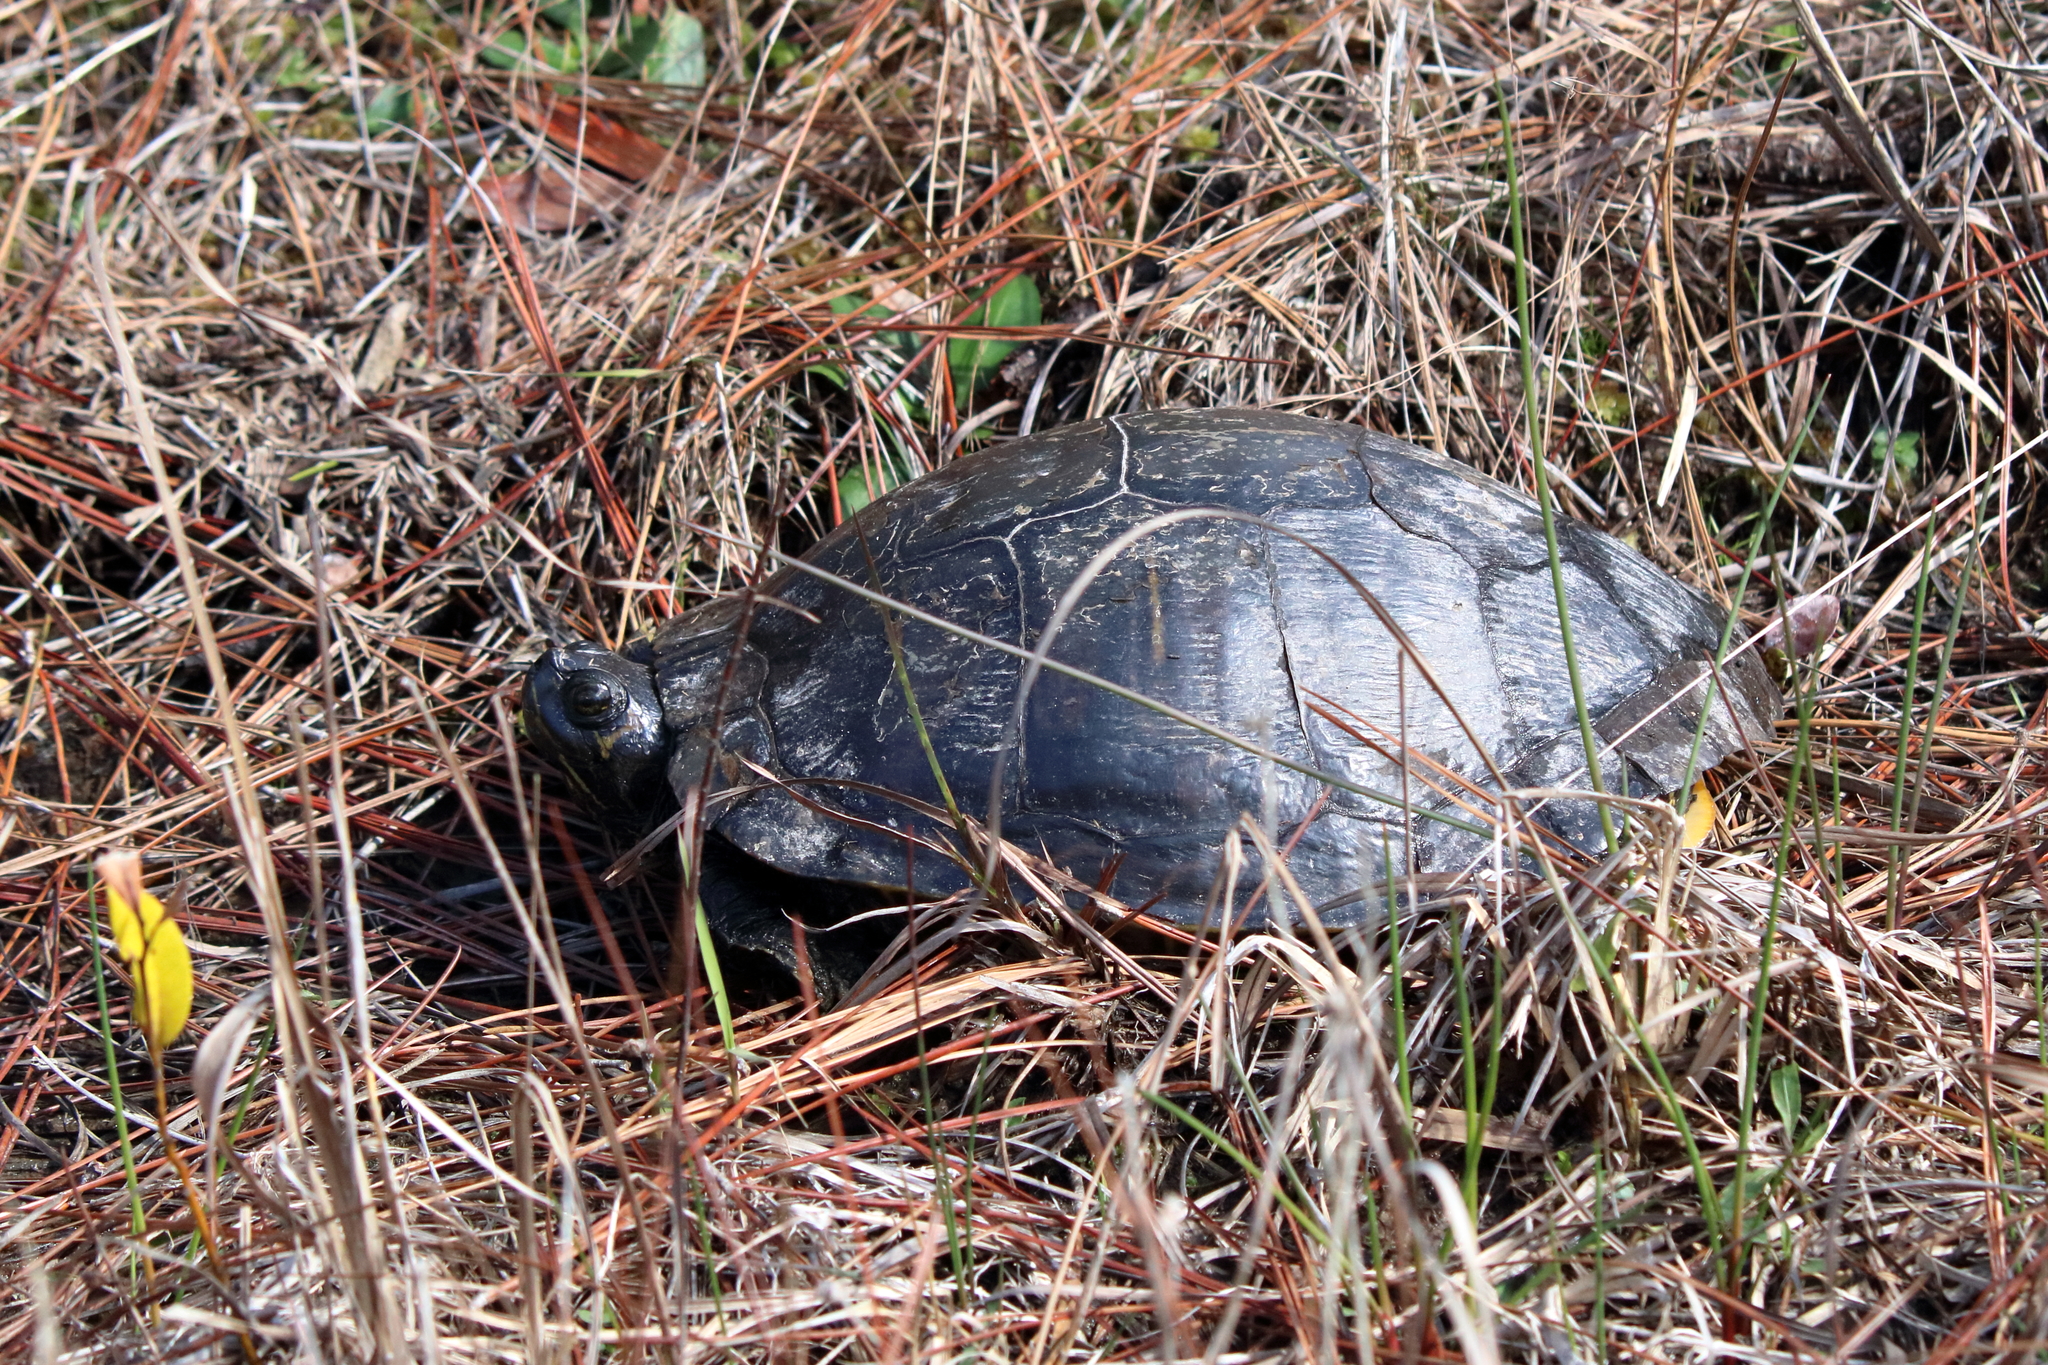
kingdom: Animalia
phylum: Chordata
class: Testudines
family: Emydidae
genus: Trachemys
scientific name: Trachemys scripta
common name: Slider
